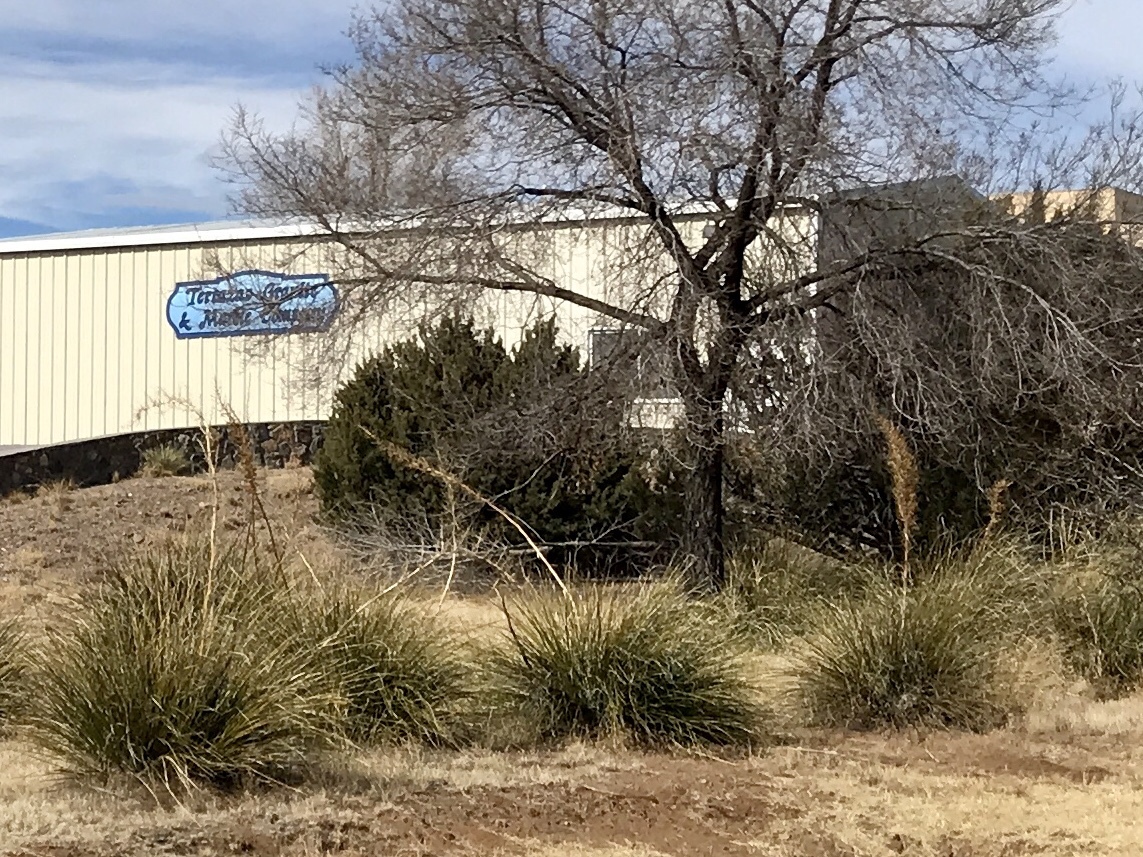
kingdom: Plantae
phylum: Tracheophyta
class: Liliopsida
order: Asparagales
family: Asparagaceae
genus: Nolina
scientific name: Nolina microcarpa
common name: Bear-grass
